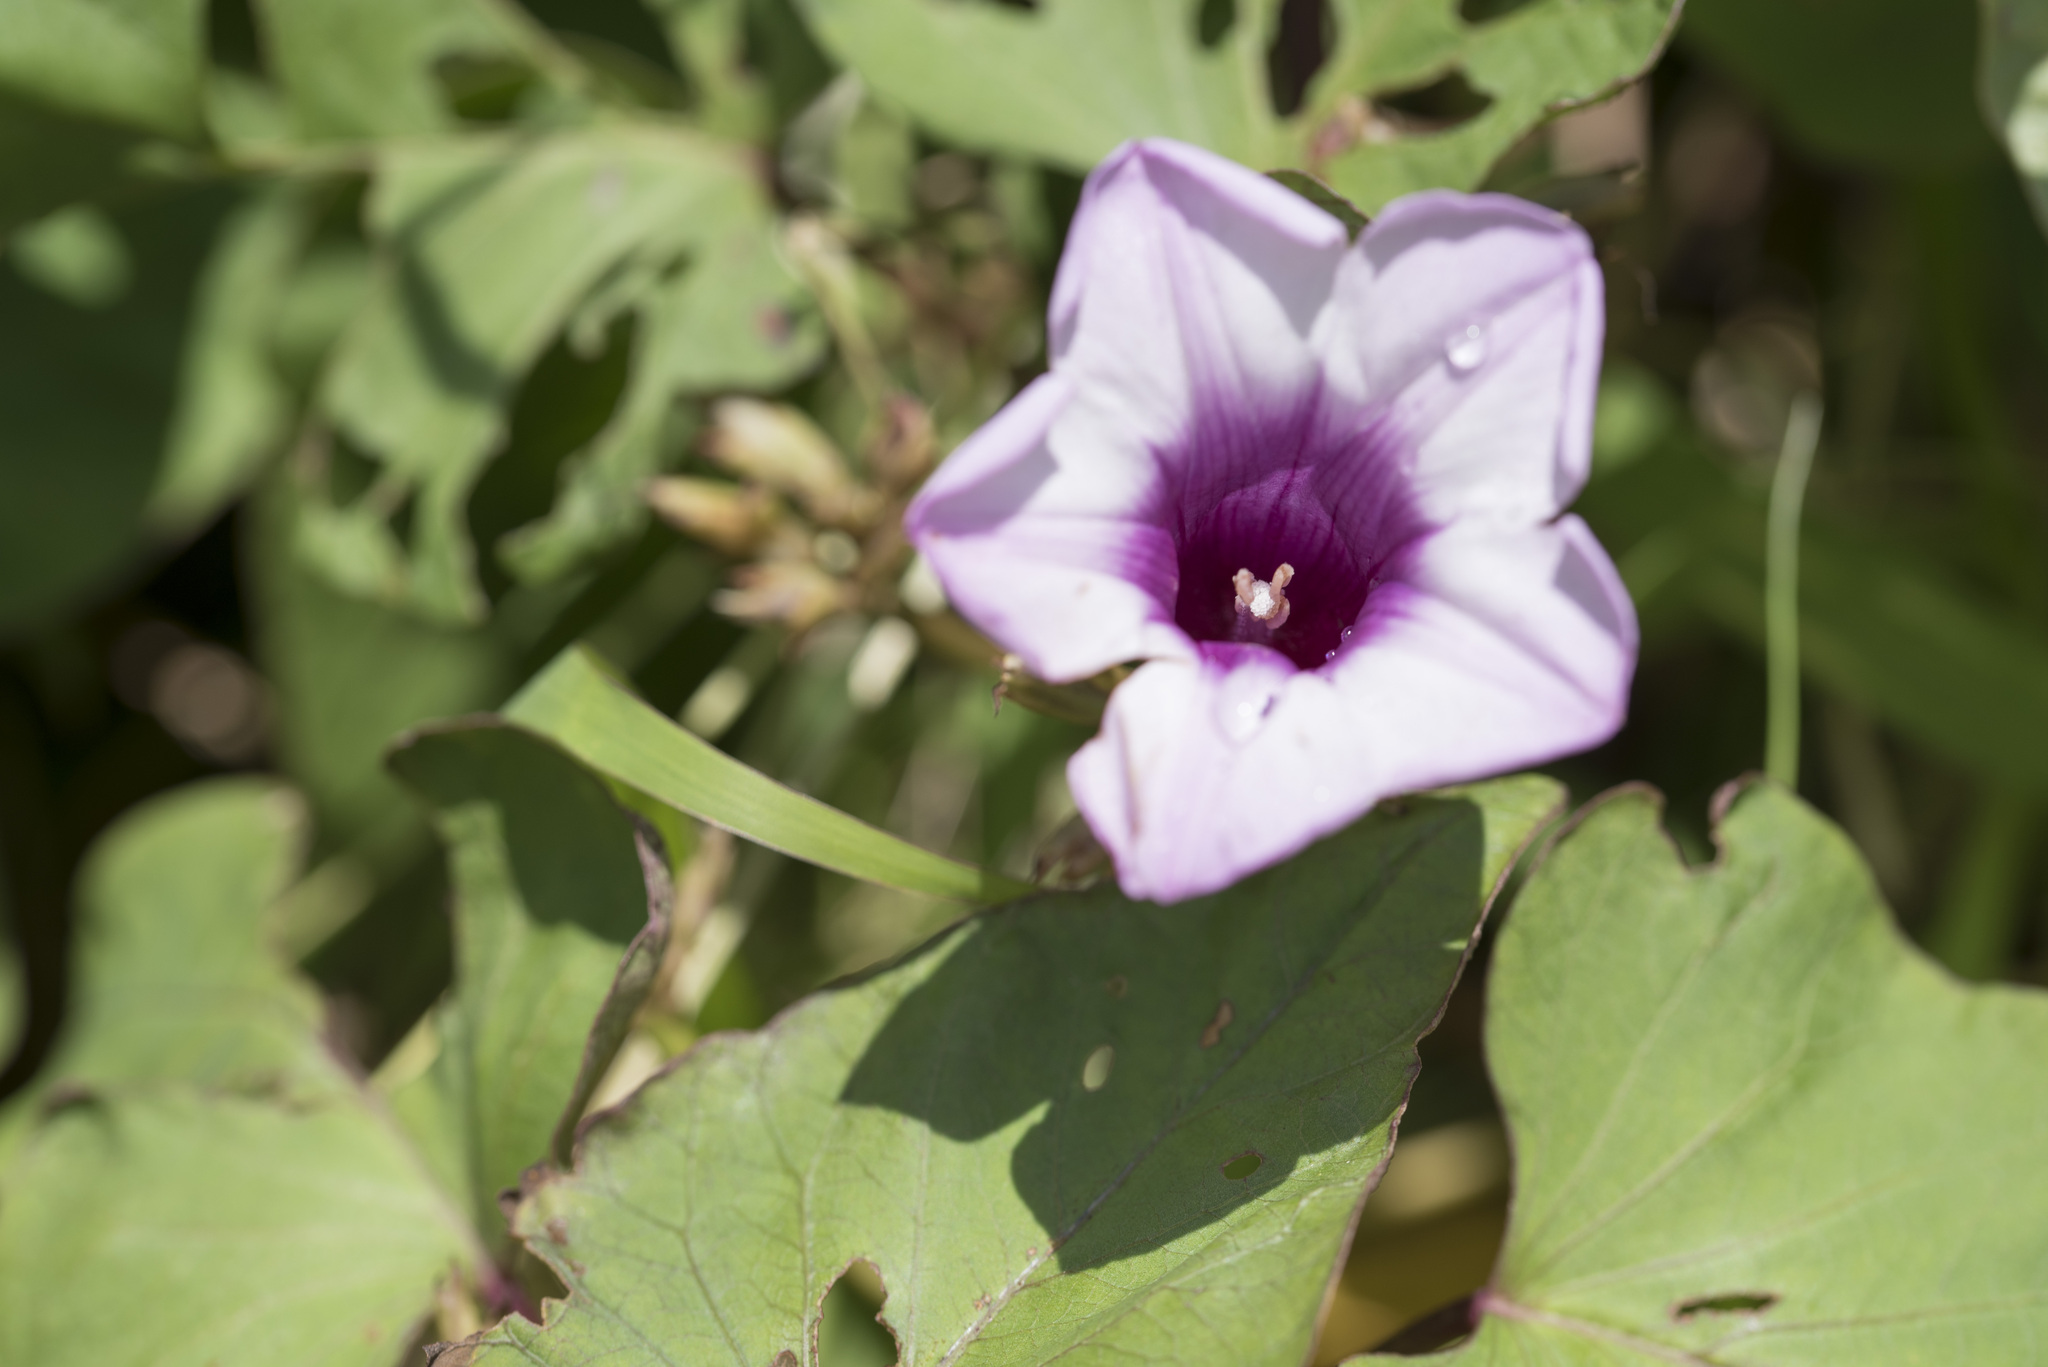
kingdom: Plantae
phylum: Tracheophyta
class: Magnoliopsida
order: Solanales
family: Convolvulaceae
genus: Ipomoea
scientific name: Ipomoea batatas
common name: Sweet-potato
